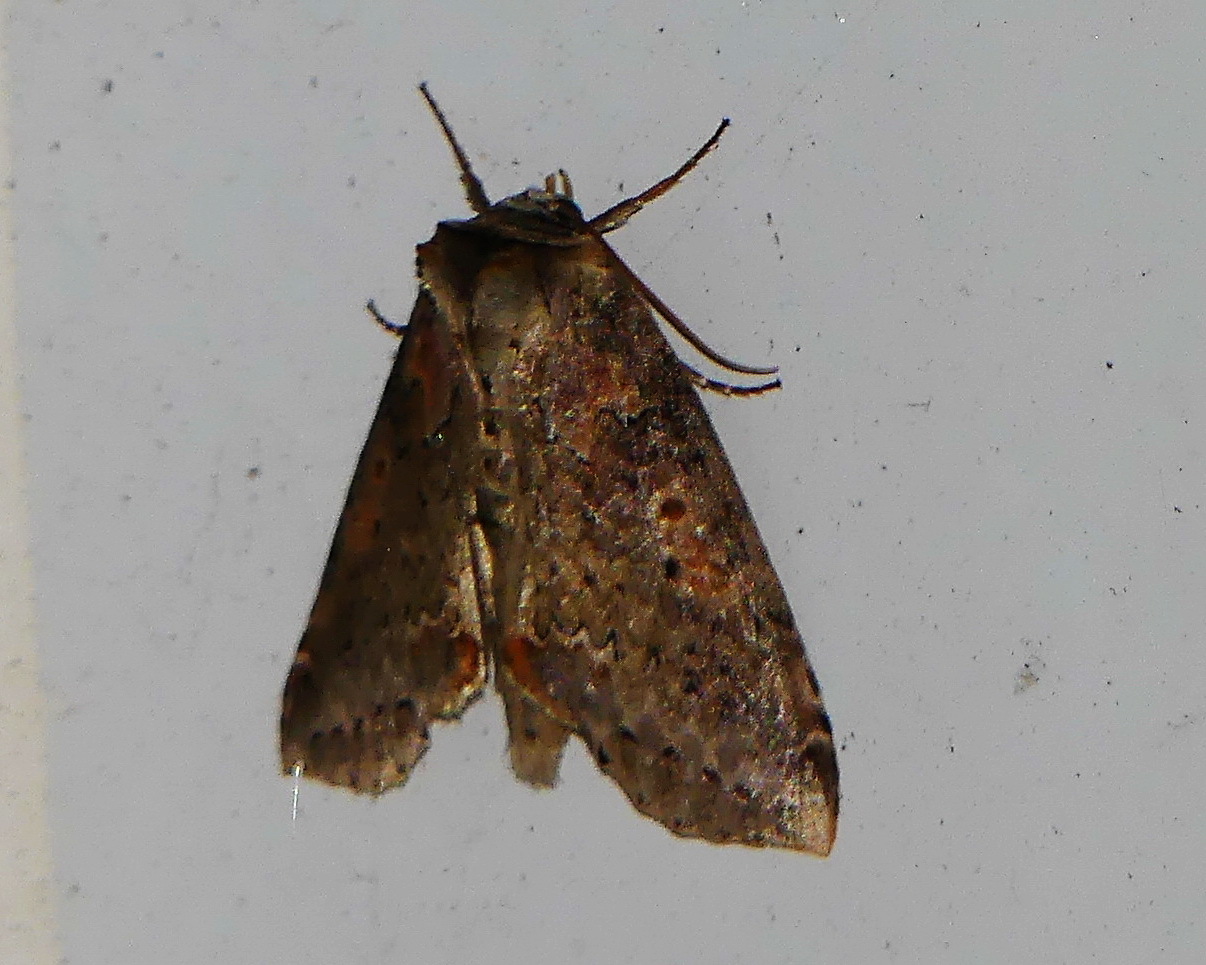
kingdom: Animalia
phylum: Arthropoda
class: Insecta
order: Lepidoptera
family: Drepanidae
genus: Pseudothyatira
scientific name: Pseudothyatira cymatophoroides
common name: Tufted thyatirid moth
